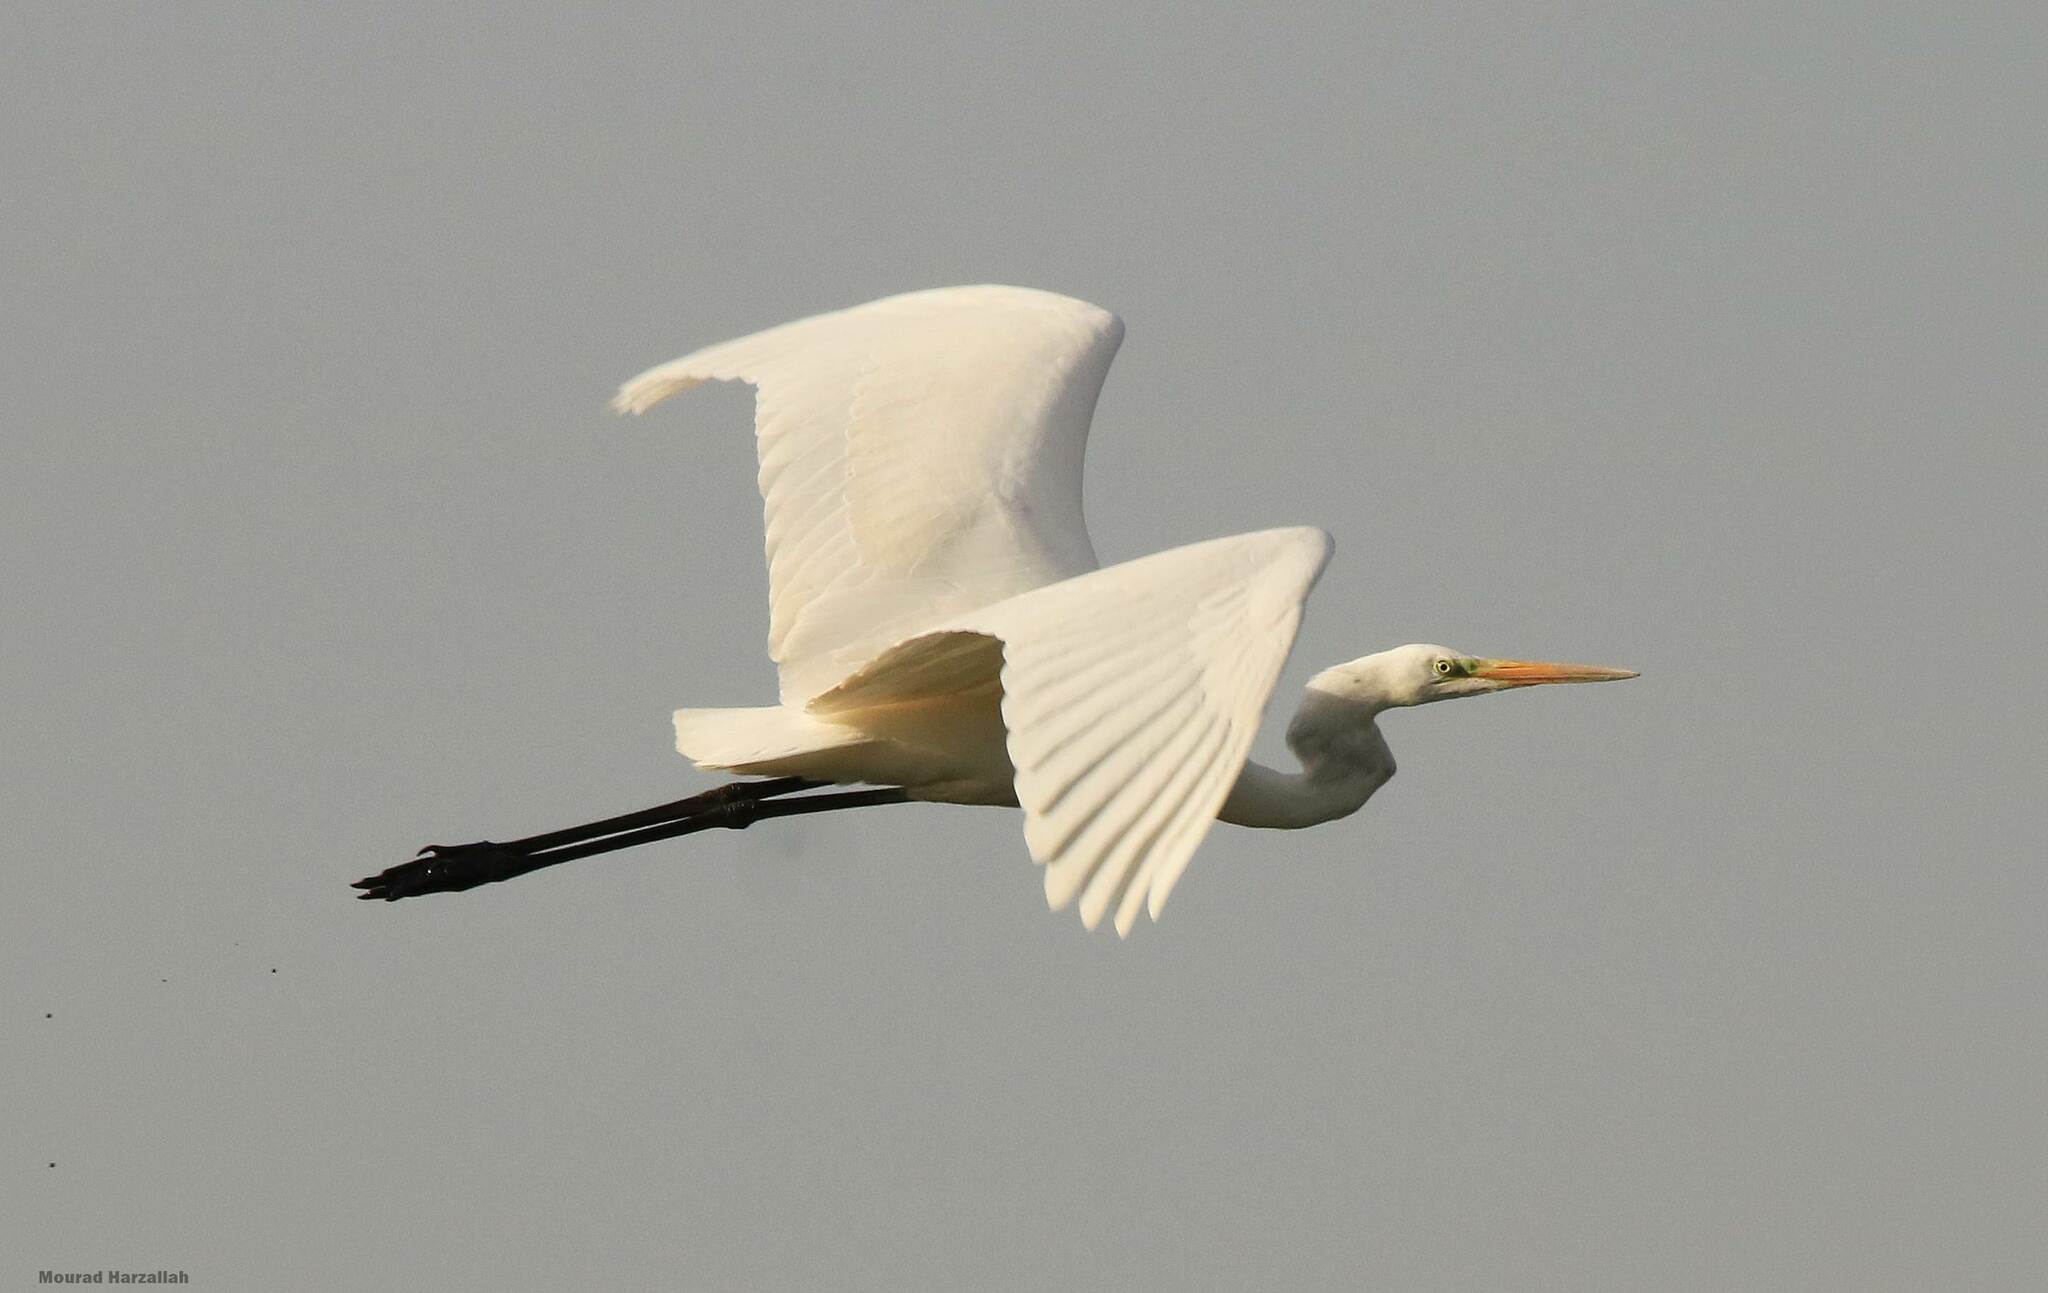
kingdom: Animalia
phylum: Chordata
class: Aves
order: Pelecaniformes
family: Ardeidae
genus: Ardea
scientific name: Ardea alba
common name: Great egret
